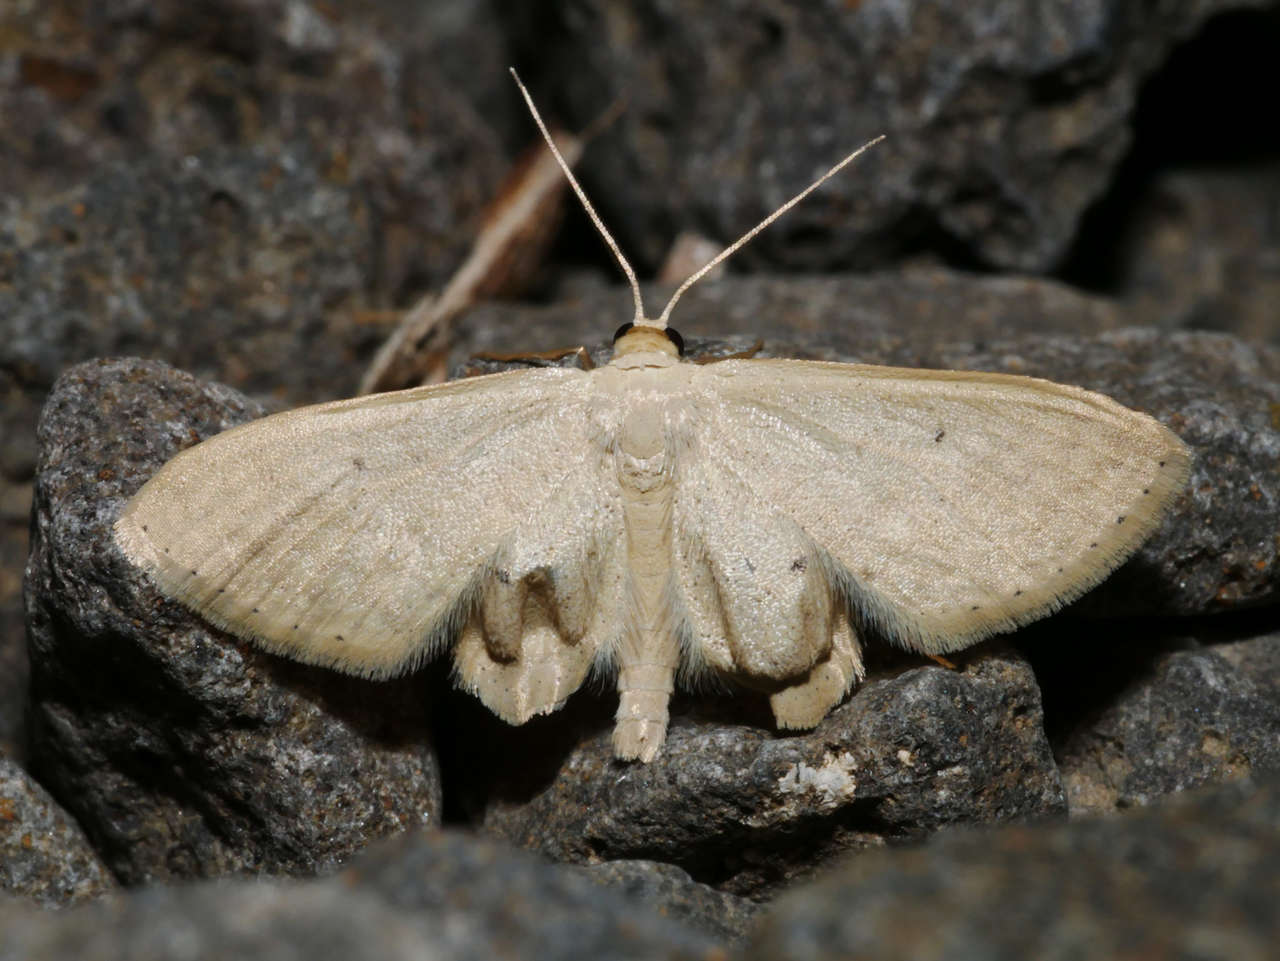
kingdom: Animalia
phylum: Arthropoda
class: Insecta
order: Lepidoptera
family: Geometridae
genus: Scopula
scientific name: Scopula optivata
